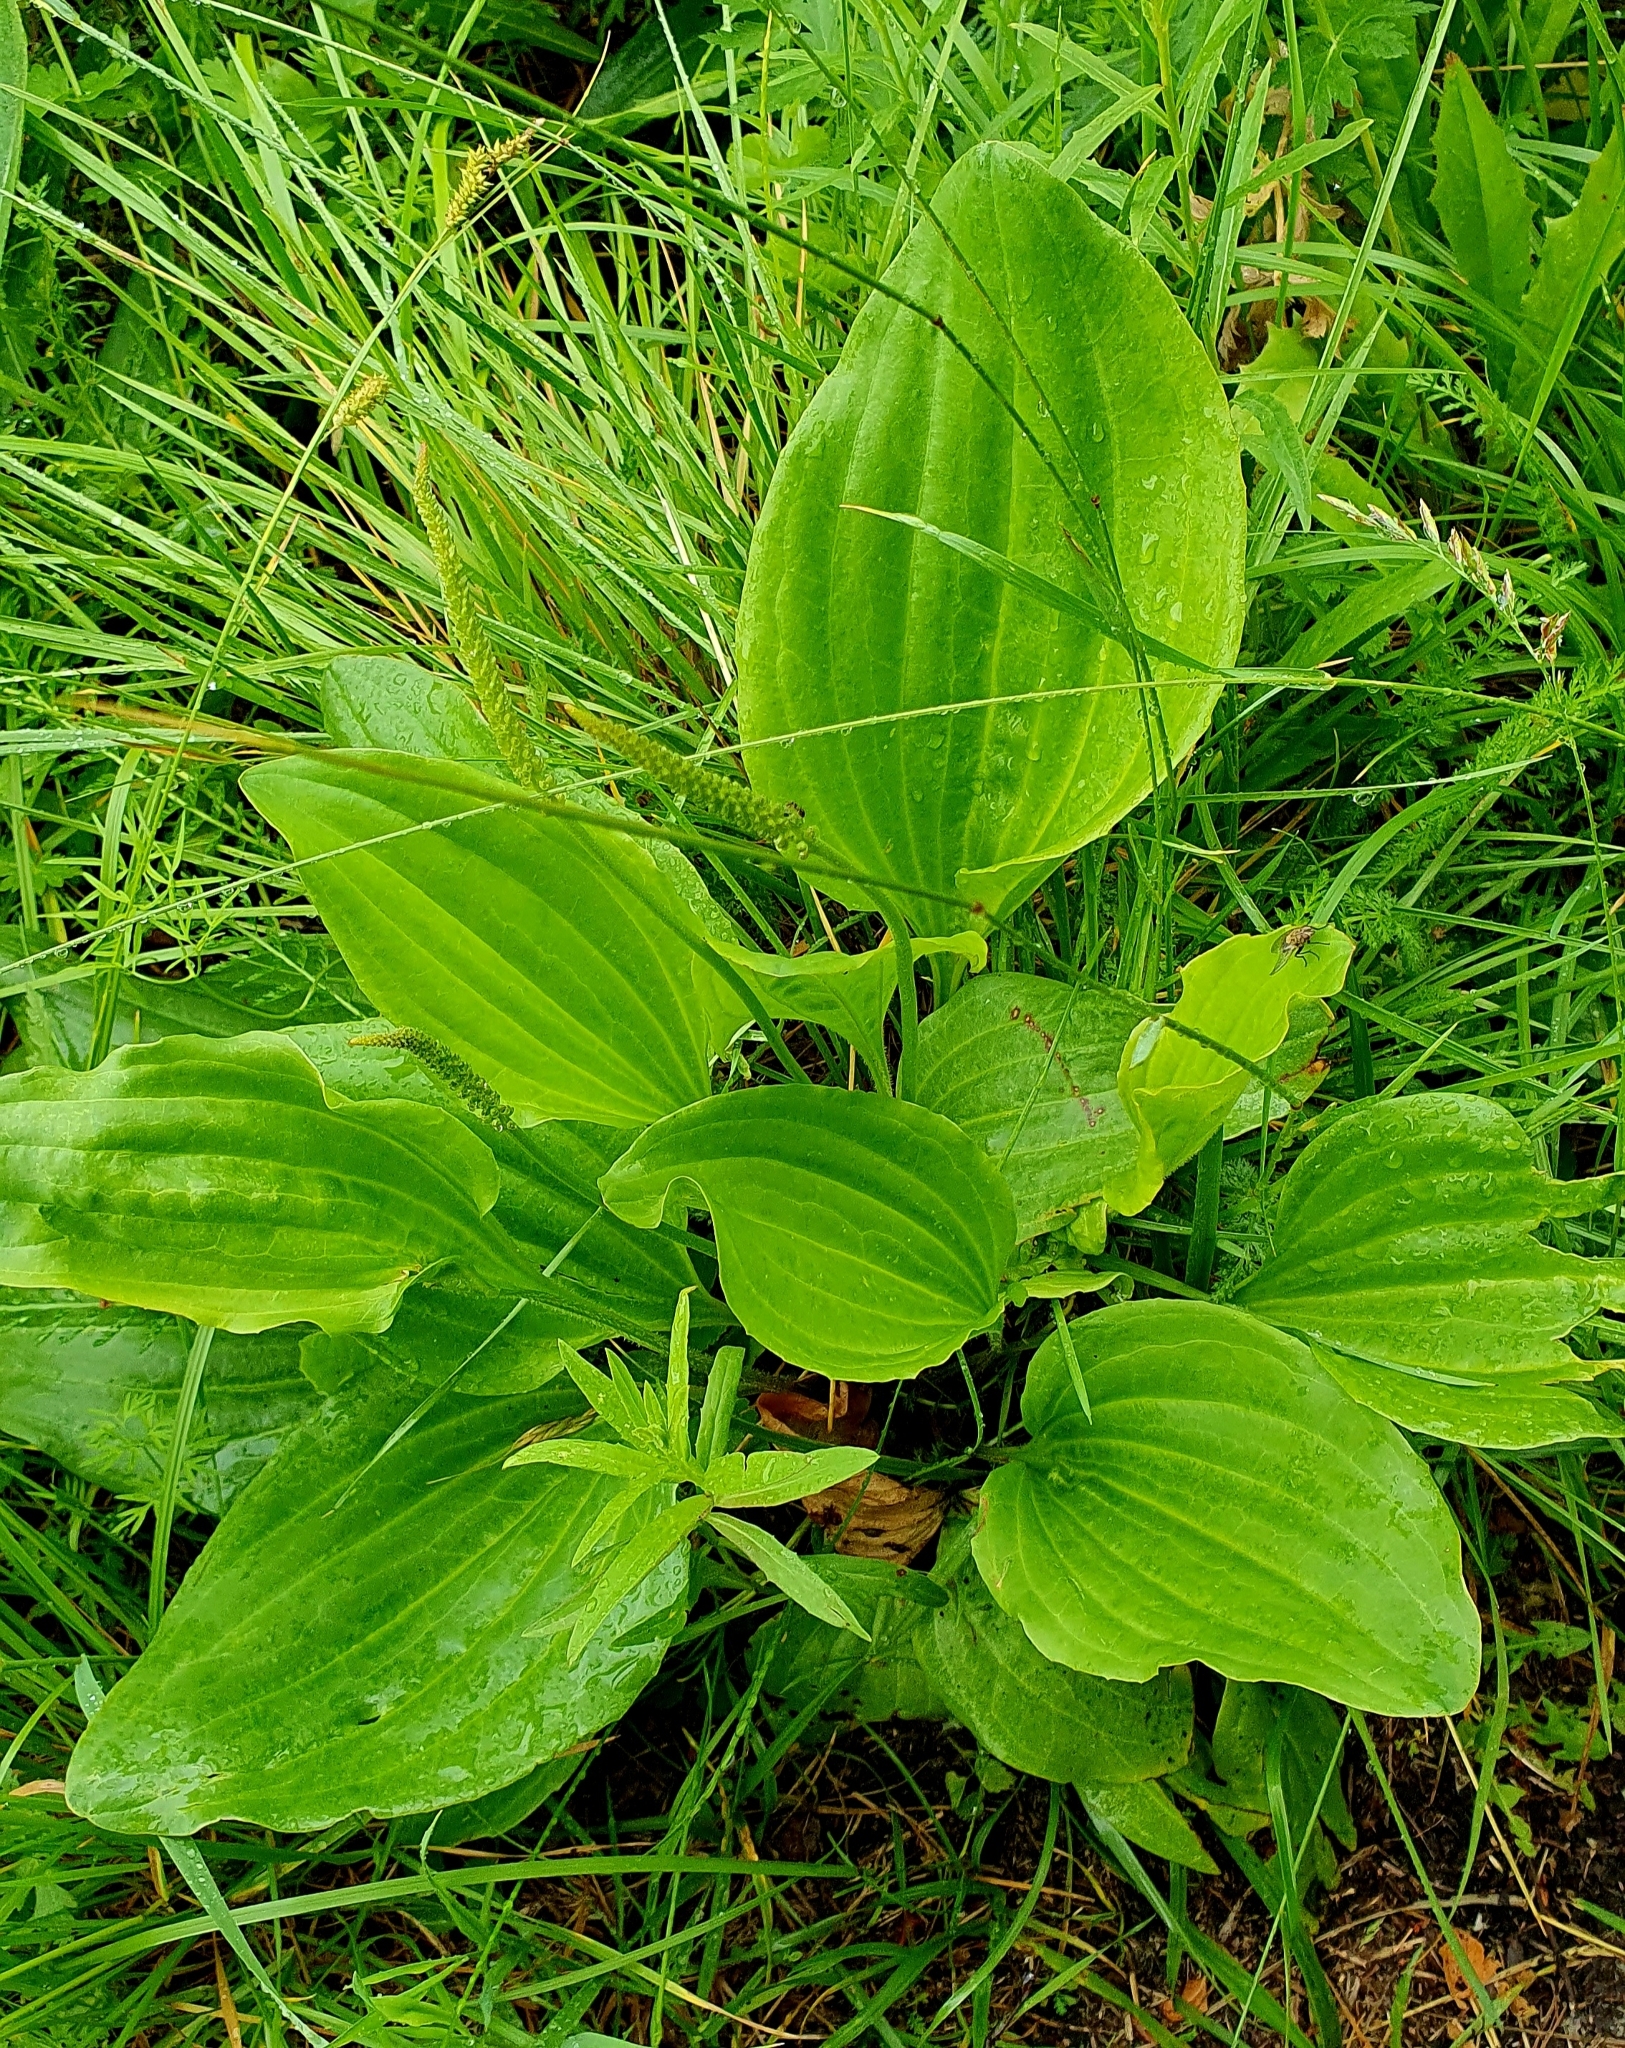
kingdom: Plantae
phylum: Tracheophyta
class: Magnoliopsida
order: Lamiales
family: Plantaginaceae
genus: Plantago
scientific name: Plantago cornuti
